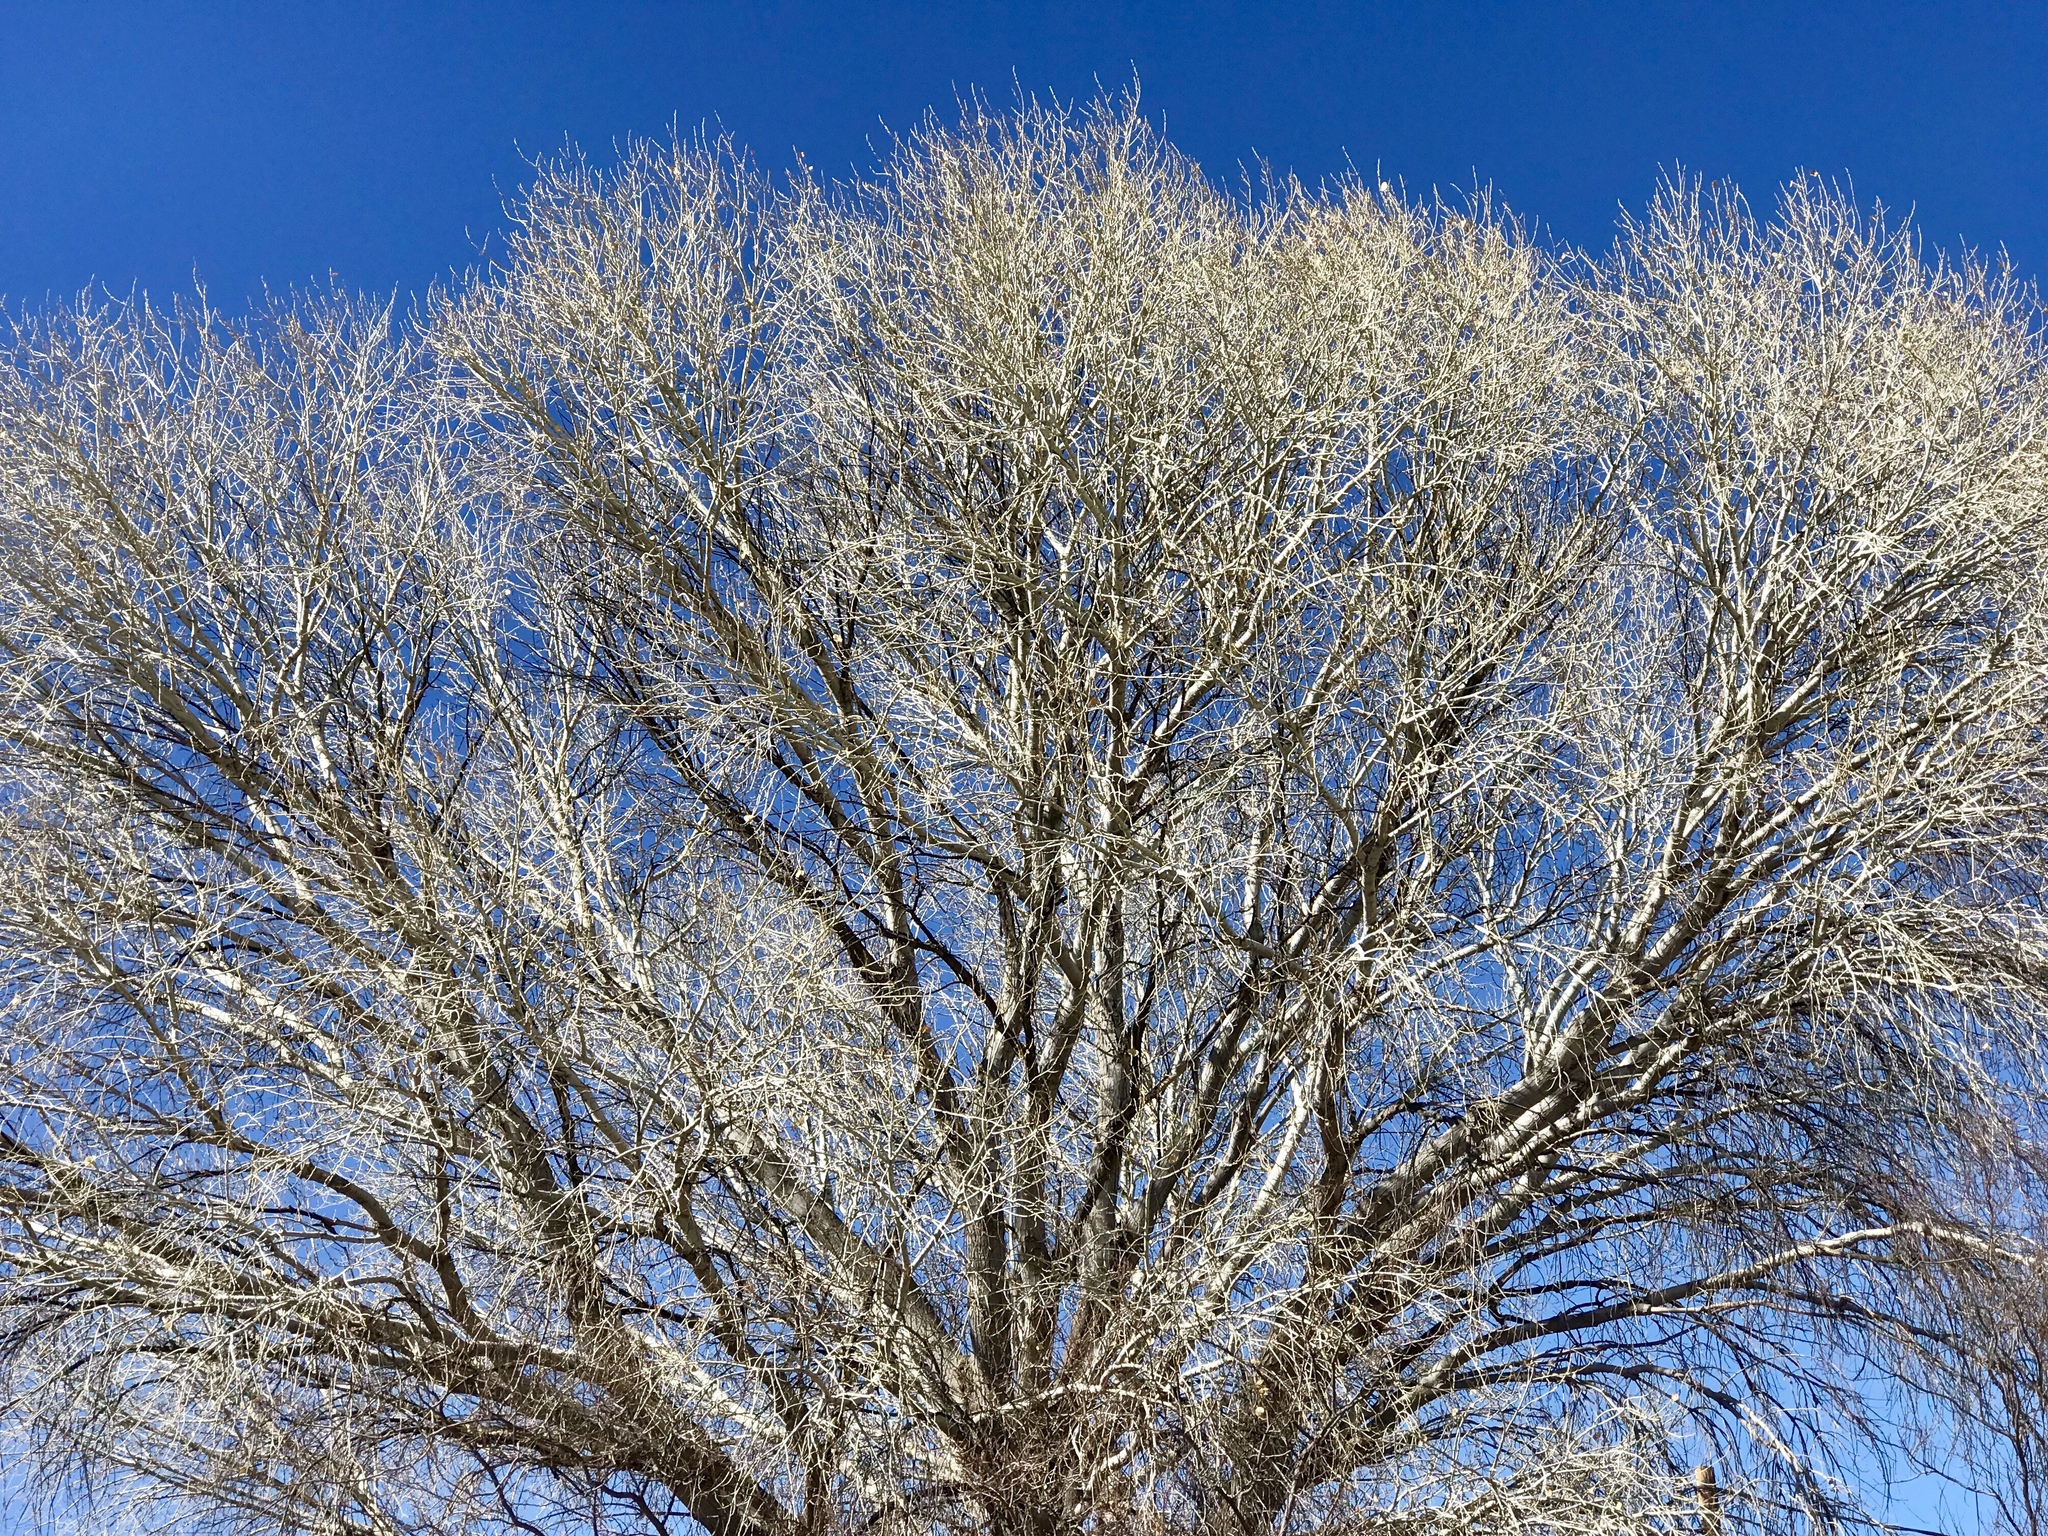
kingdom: Plantae
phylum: Tracheophyta
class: Magnoliopsida
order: Malpighiales
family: Salicaceae
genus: Populus
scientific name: Populus fremontii
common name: Fremont's cottonwood
